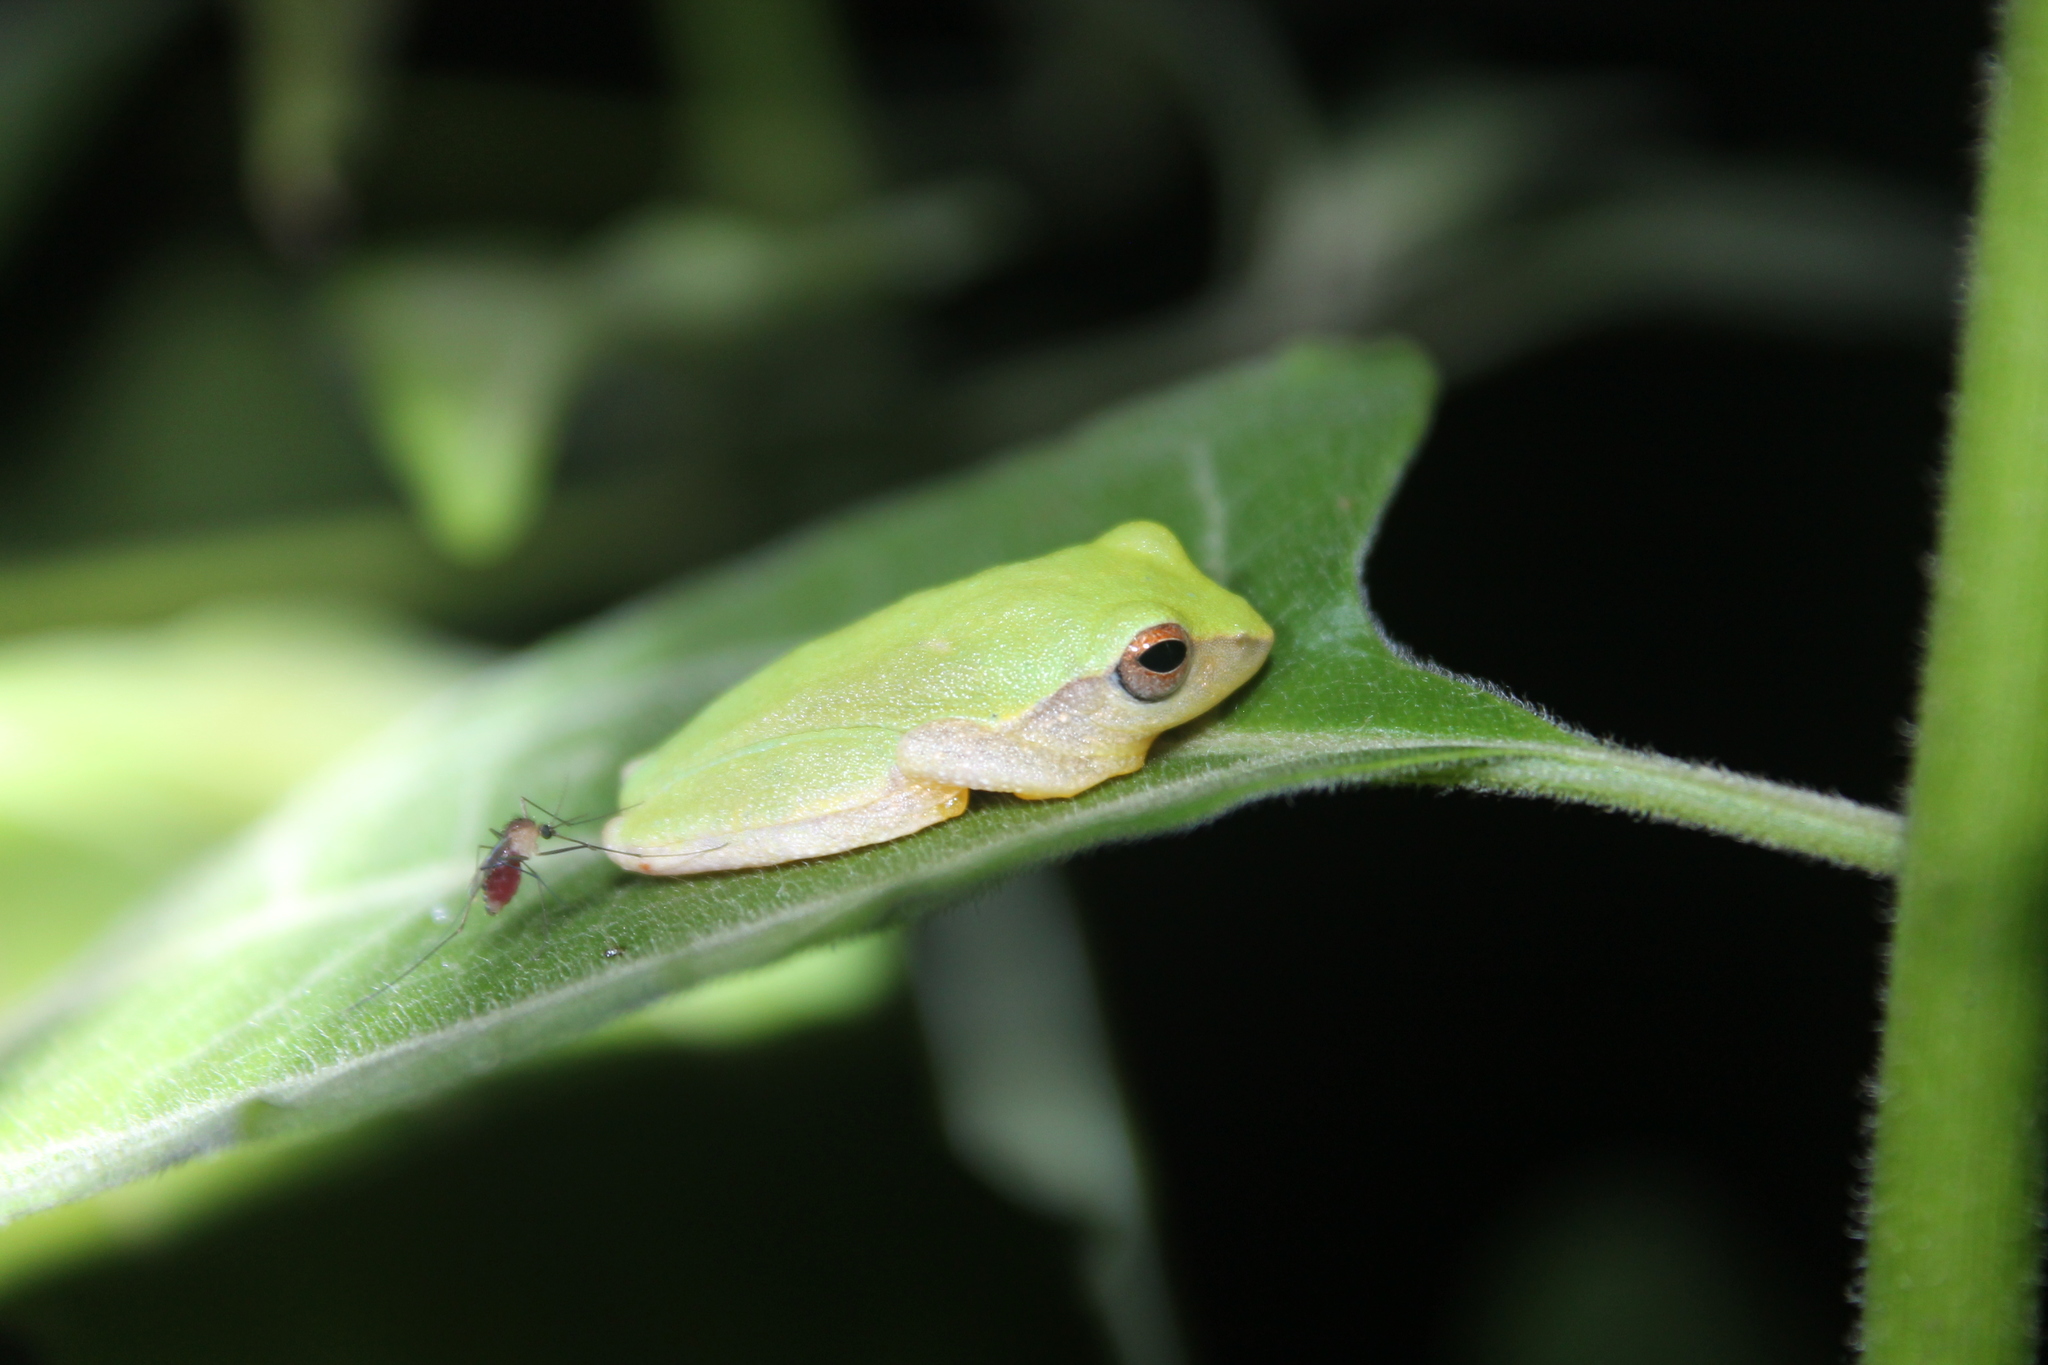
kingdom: Animalia
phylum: Chordata
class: Amphibia
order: Anura
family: Rhacophoridae
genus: Raorchestes
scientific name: Raorchestes akroparallagi
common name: Variable bush frog
